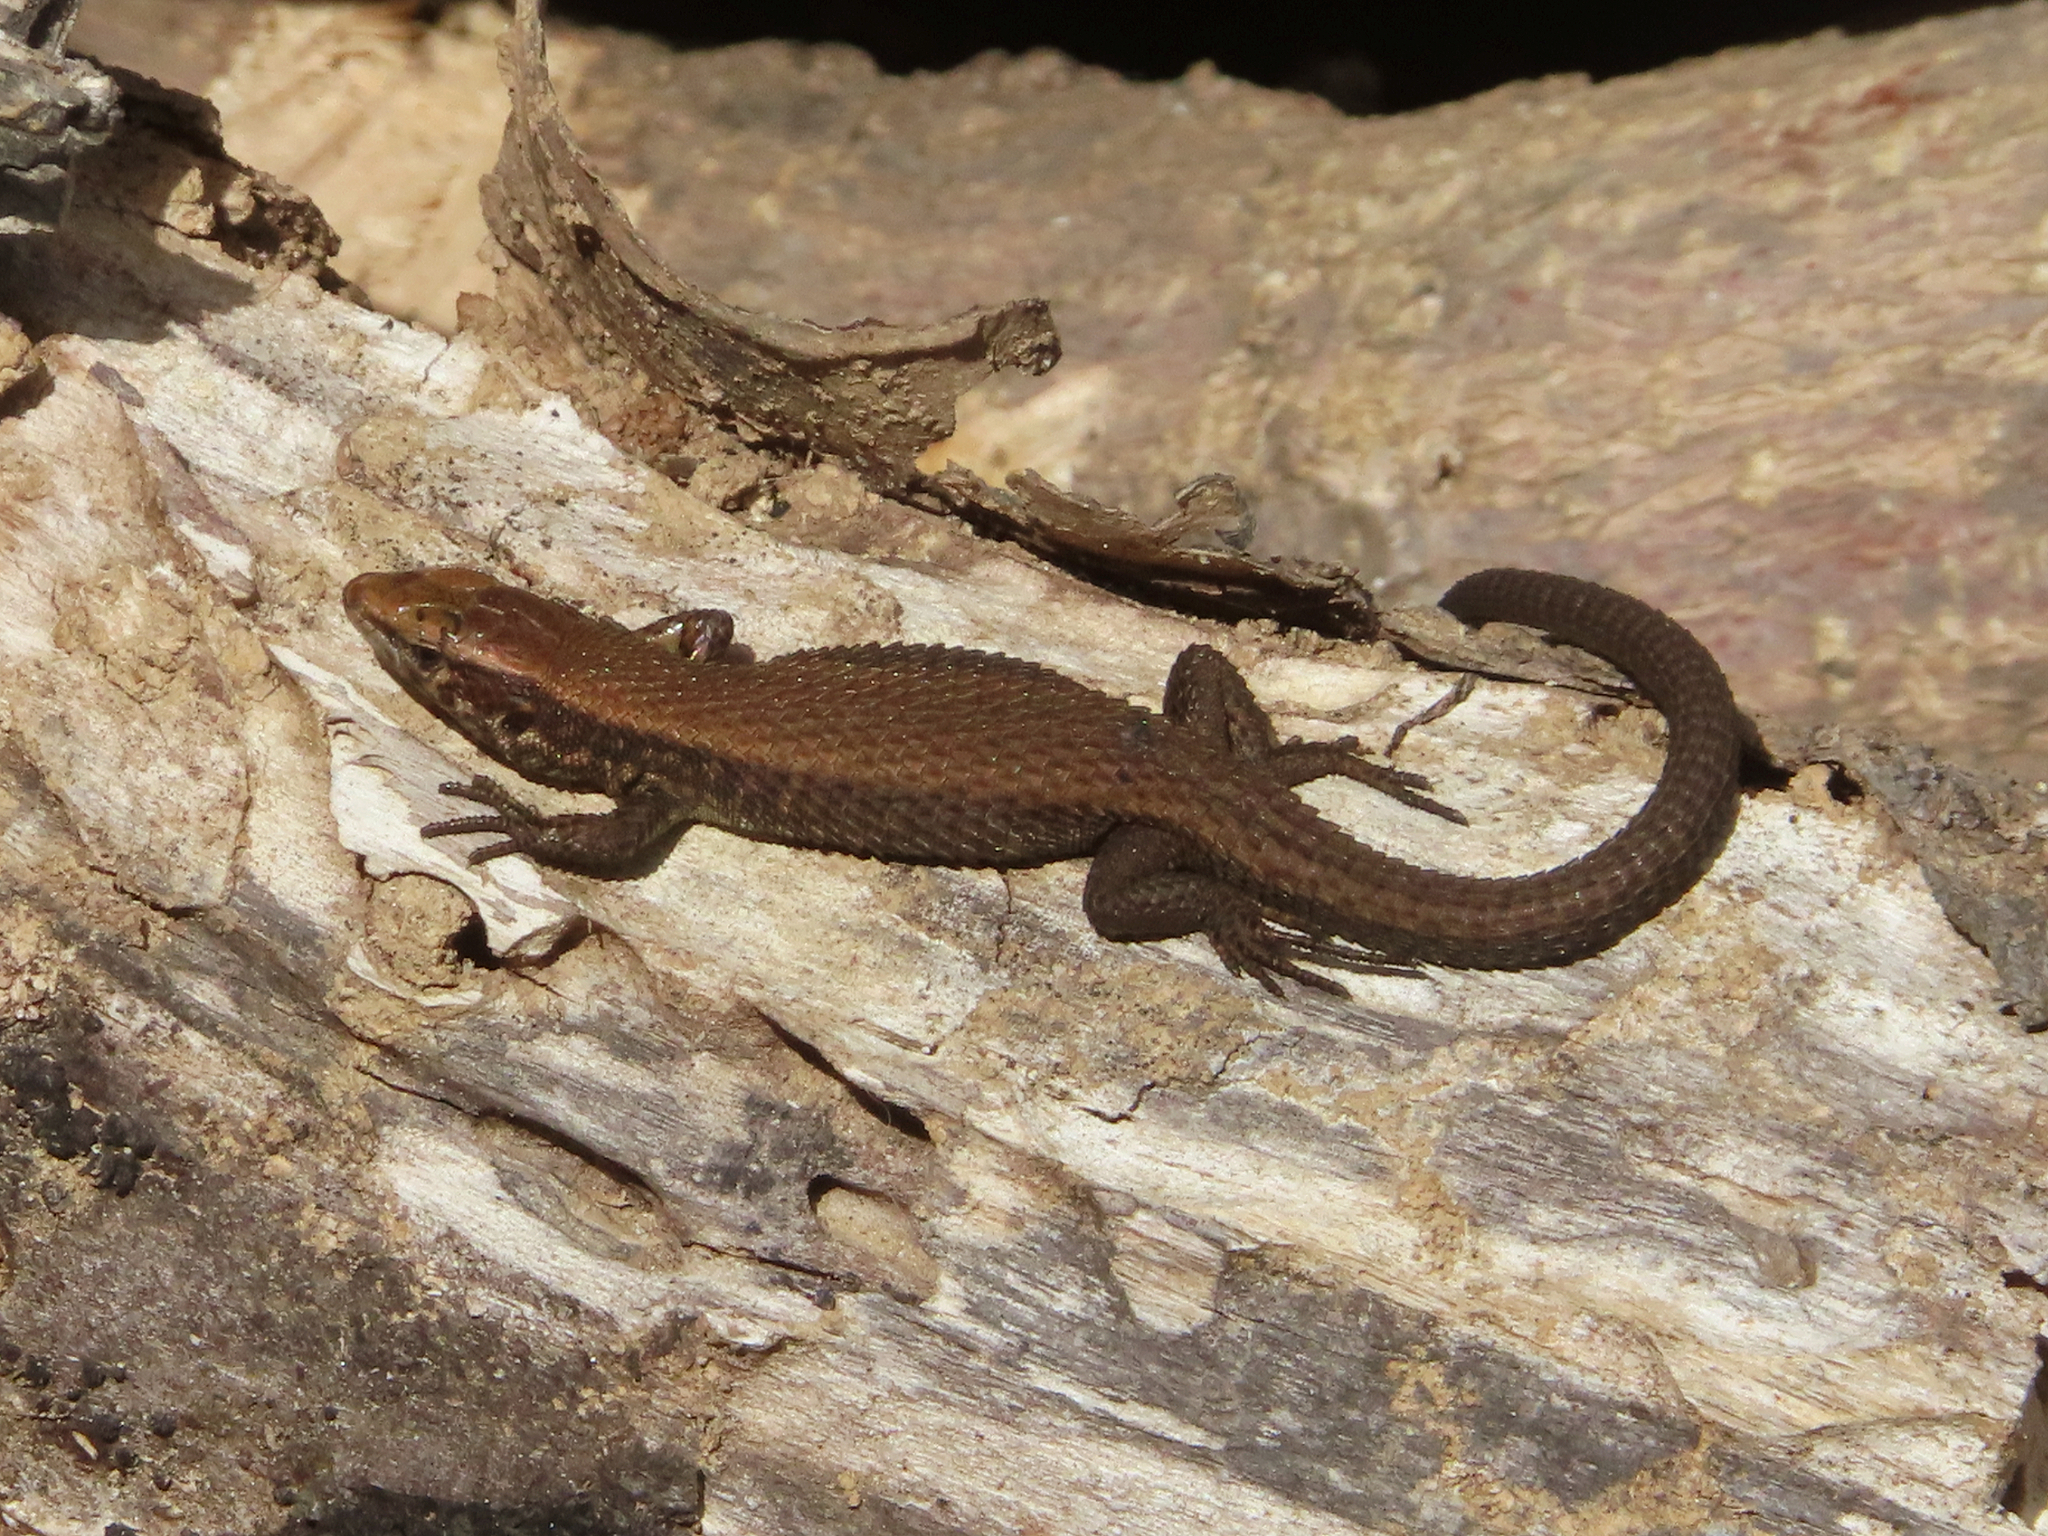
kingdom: Animalia
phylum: Chordata
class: Squamata
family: Lacertidae
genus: Algyroides
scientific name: Algyroides moreoticus
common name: Greek algyroides
